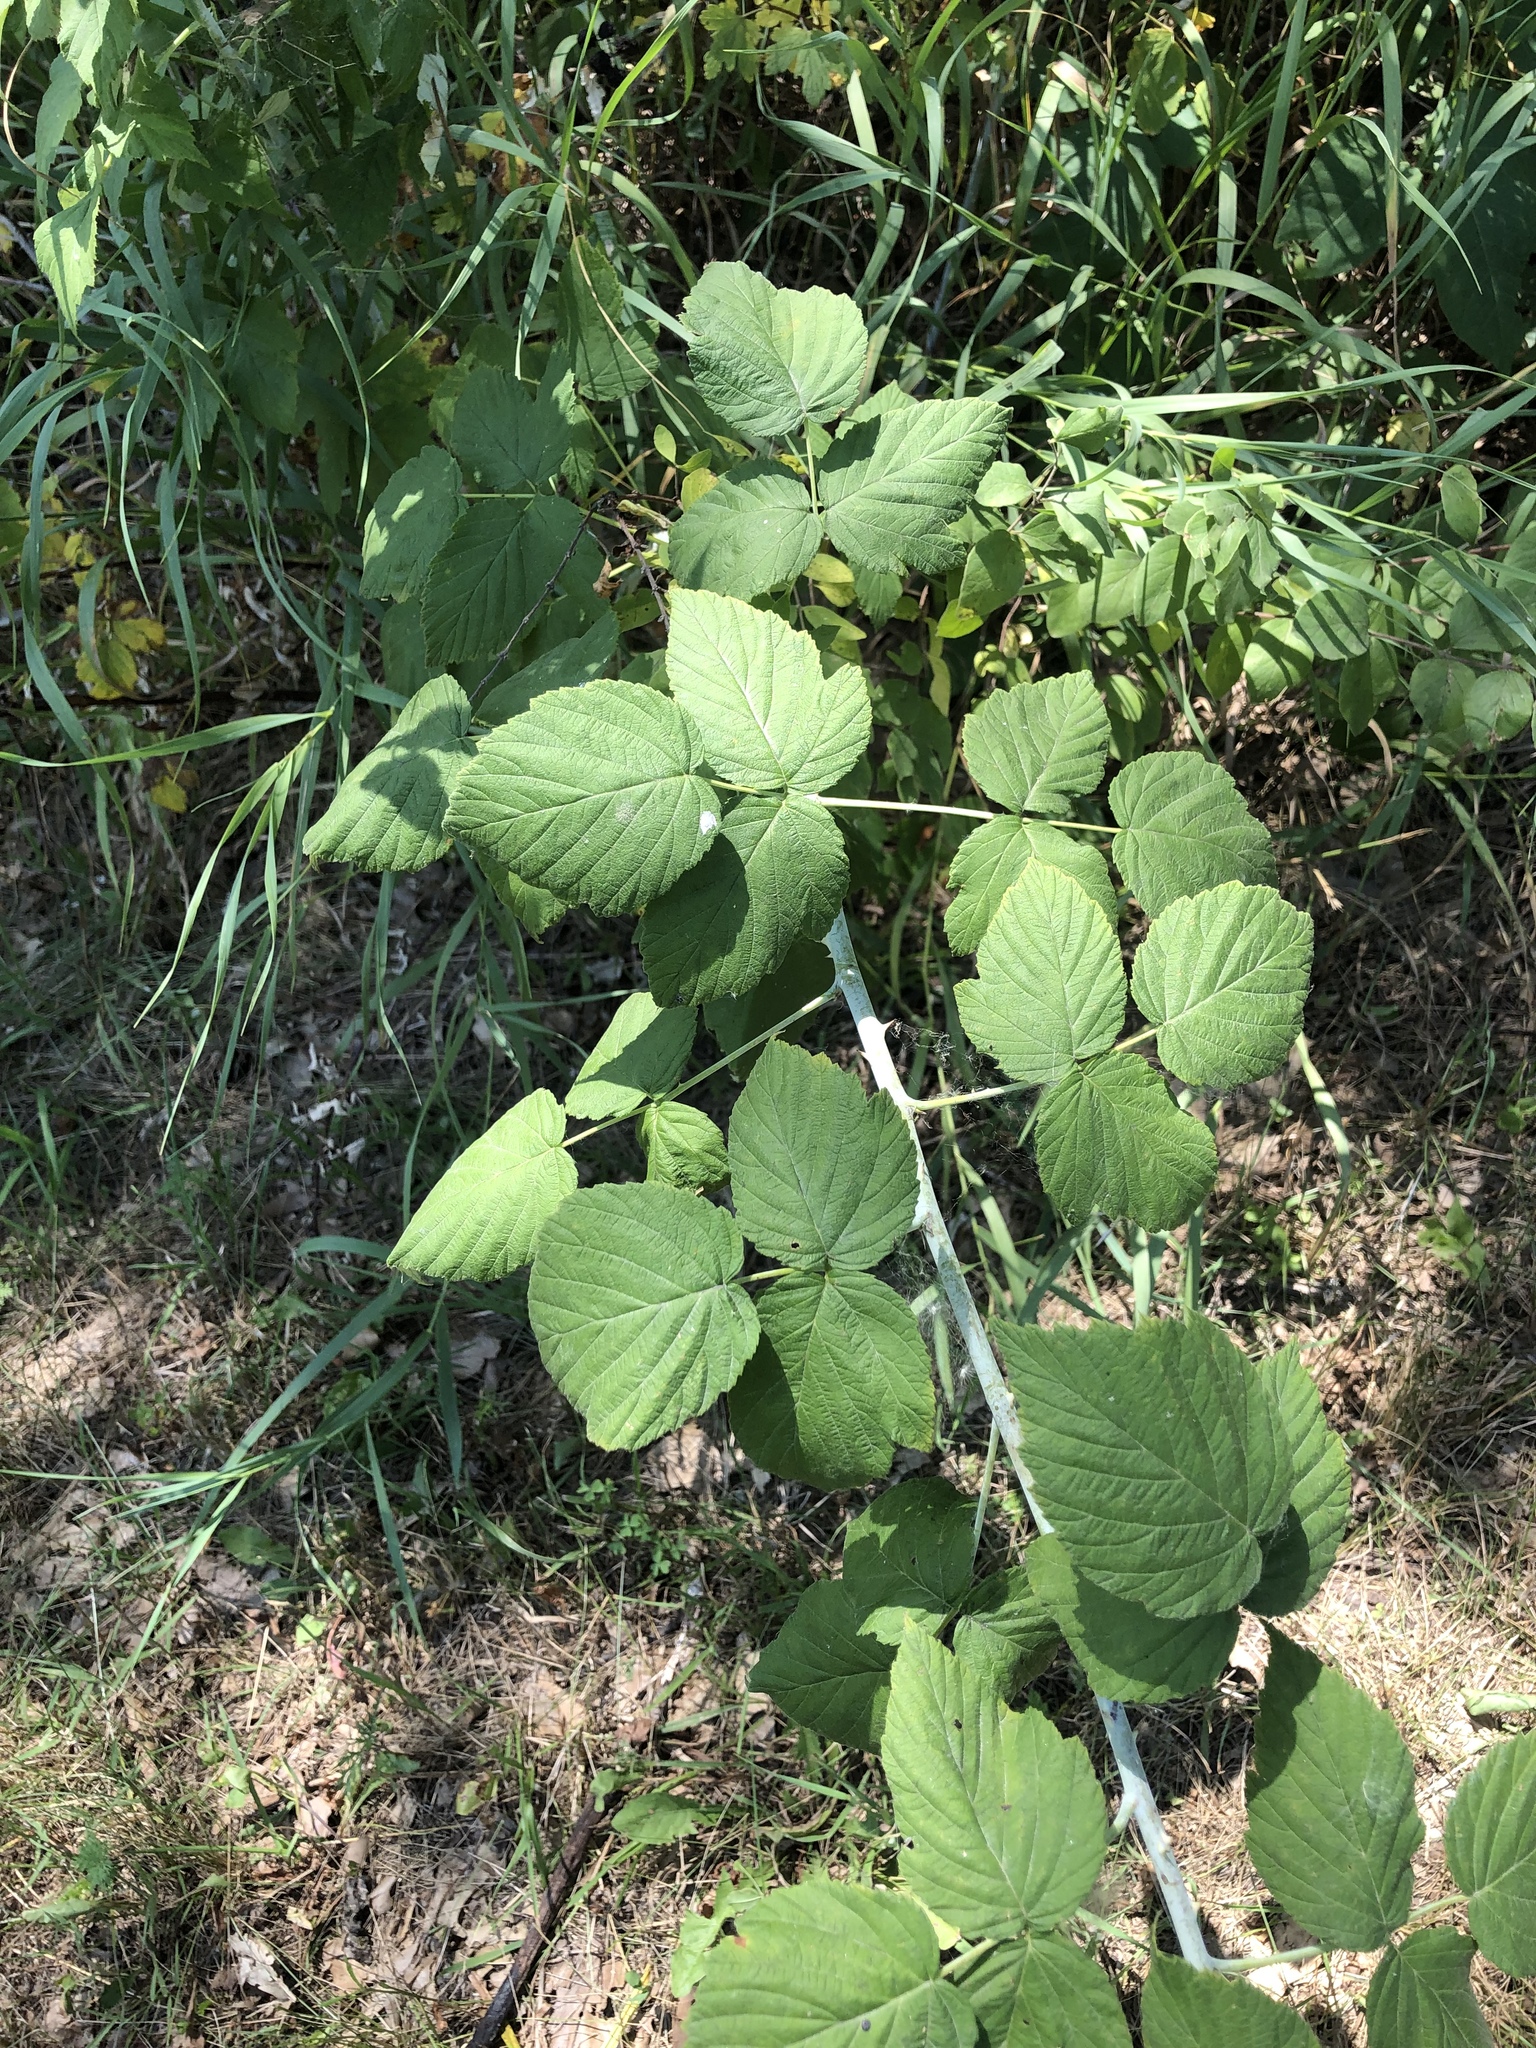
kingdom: Plantae
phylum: Tracheophyta
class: Magnoliopsida
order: Rosales
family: Rosaceae
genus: Rubus
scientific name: Rubus occidentalis
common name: Black raspberry
